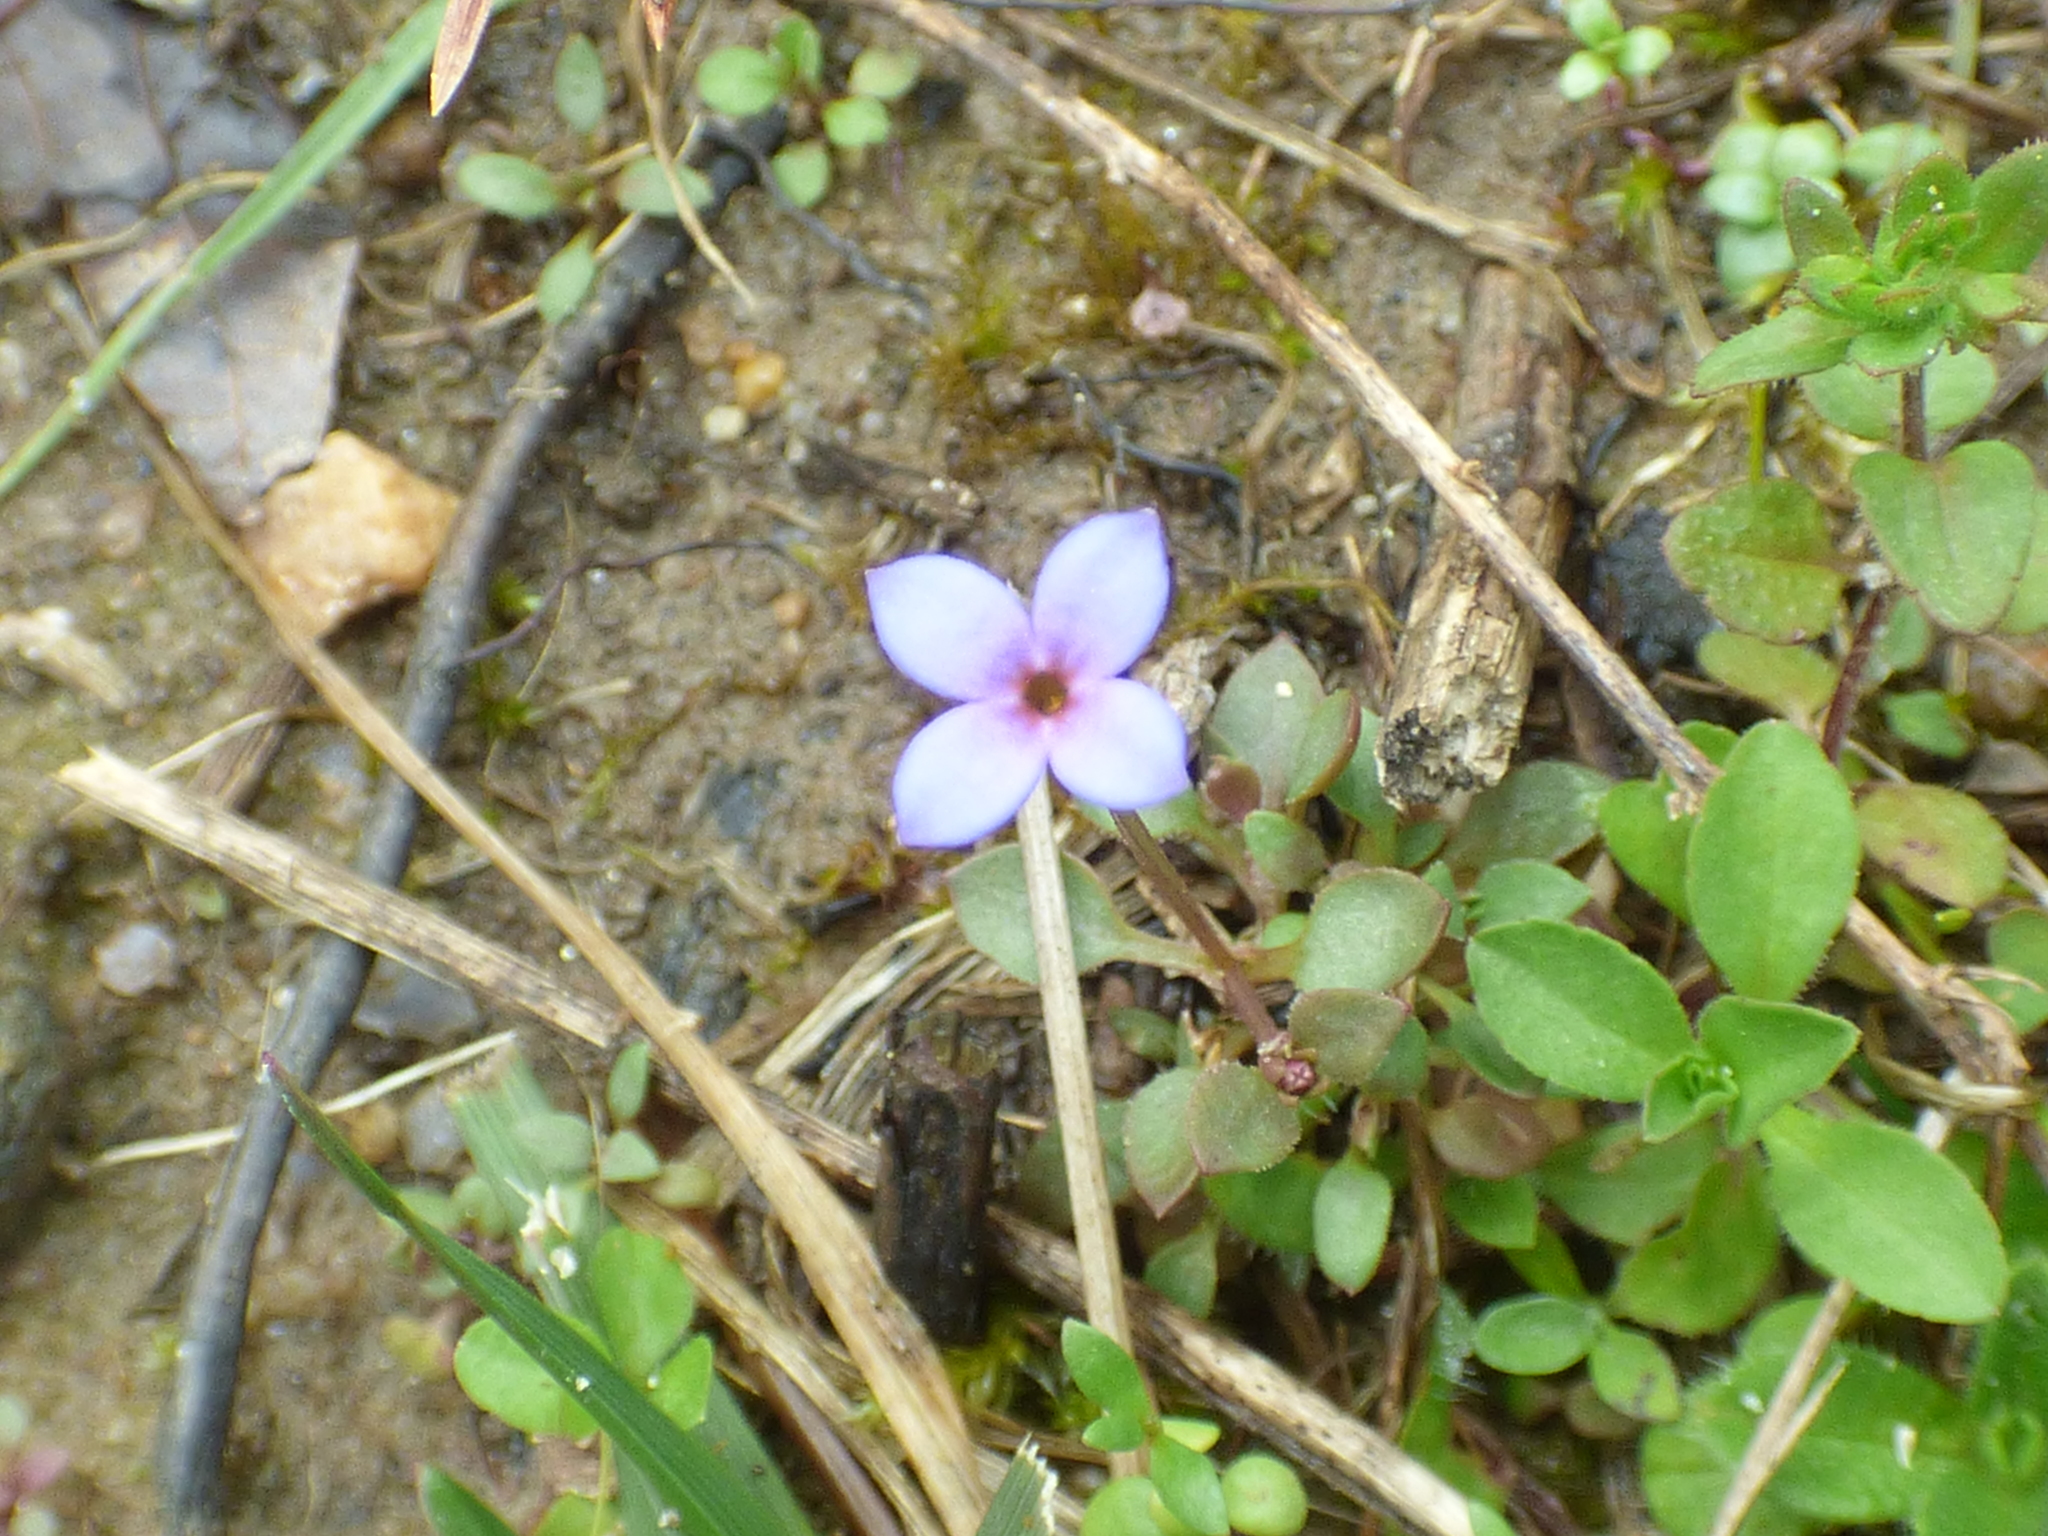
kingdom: Plantae
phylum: Tracheophyta
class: Magnoliopsida
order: Gentianales
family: Rubiaceae
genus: Houstonia
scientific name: Houstonia pusilla
